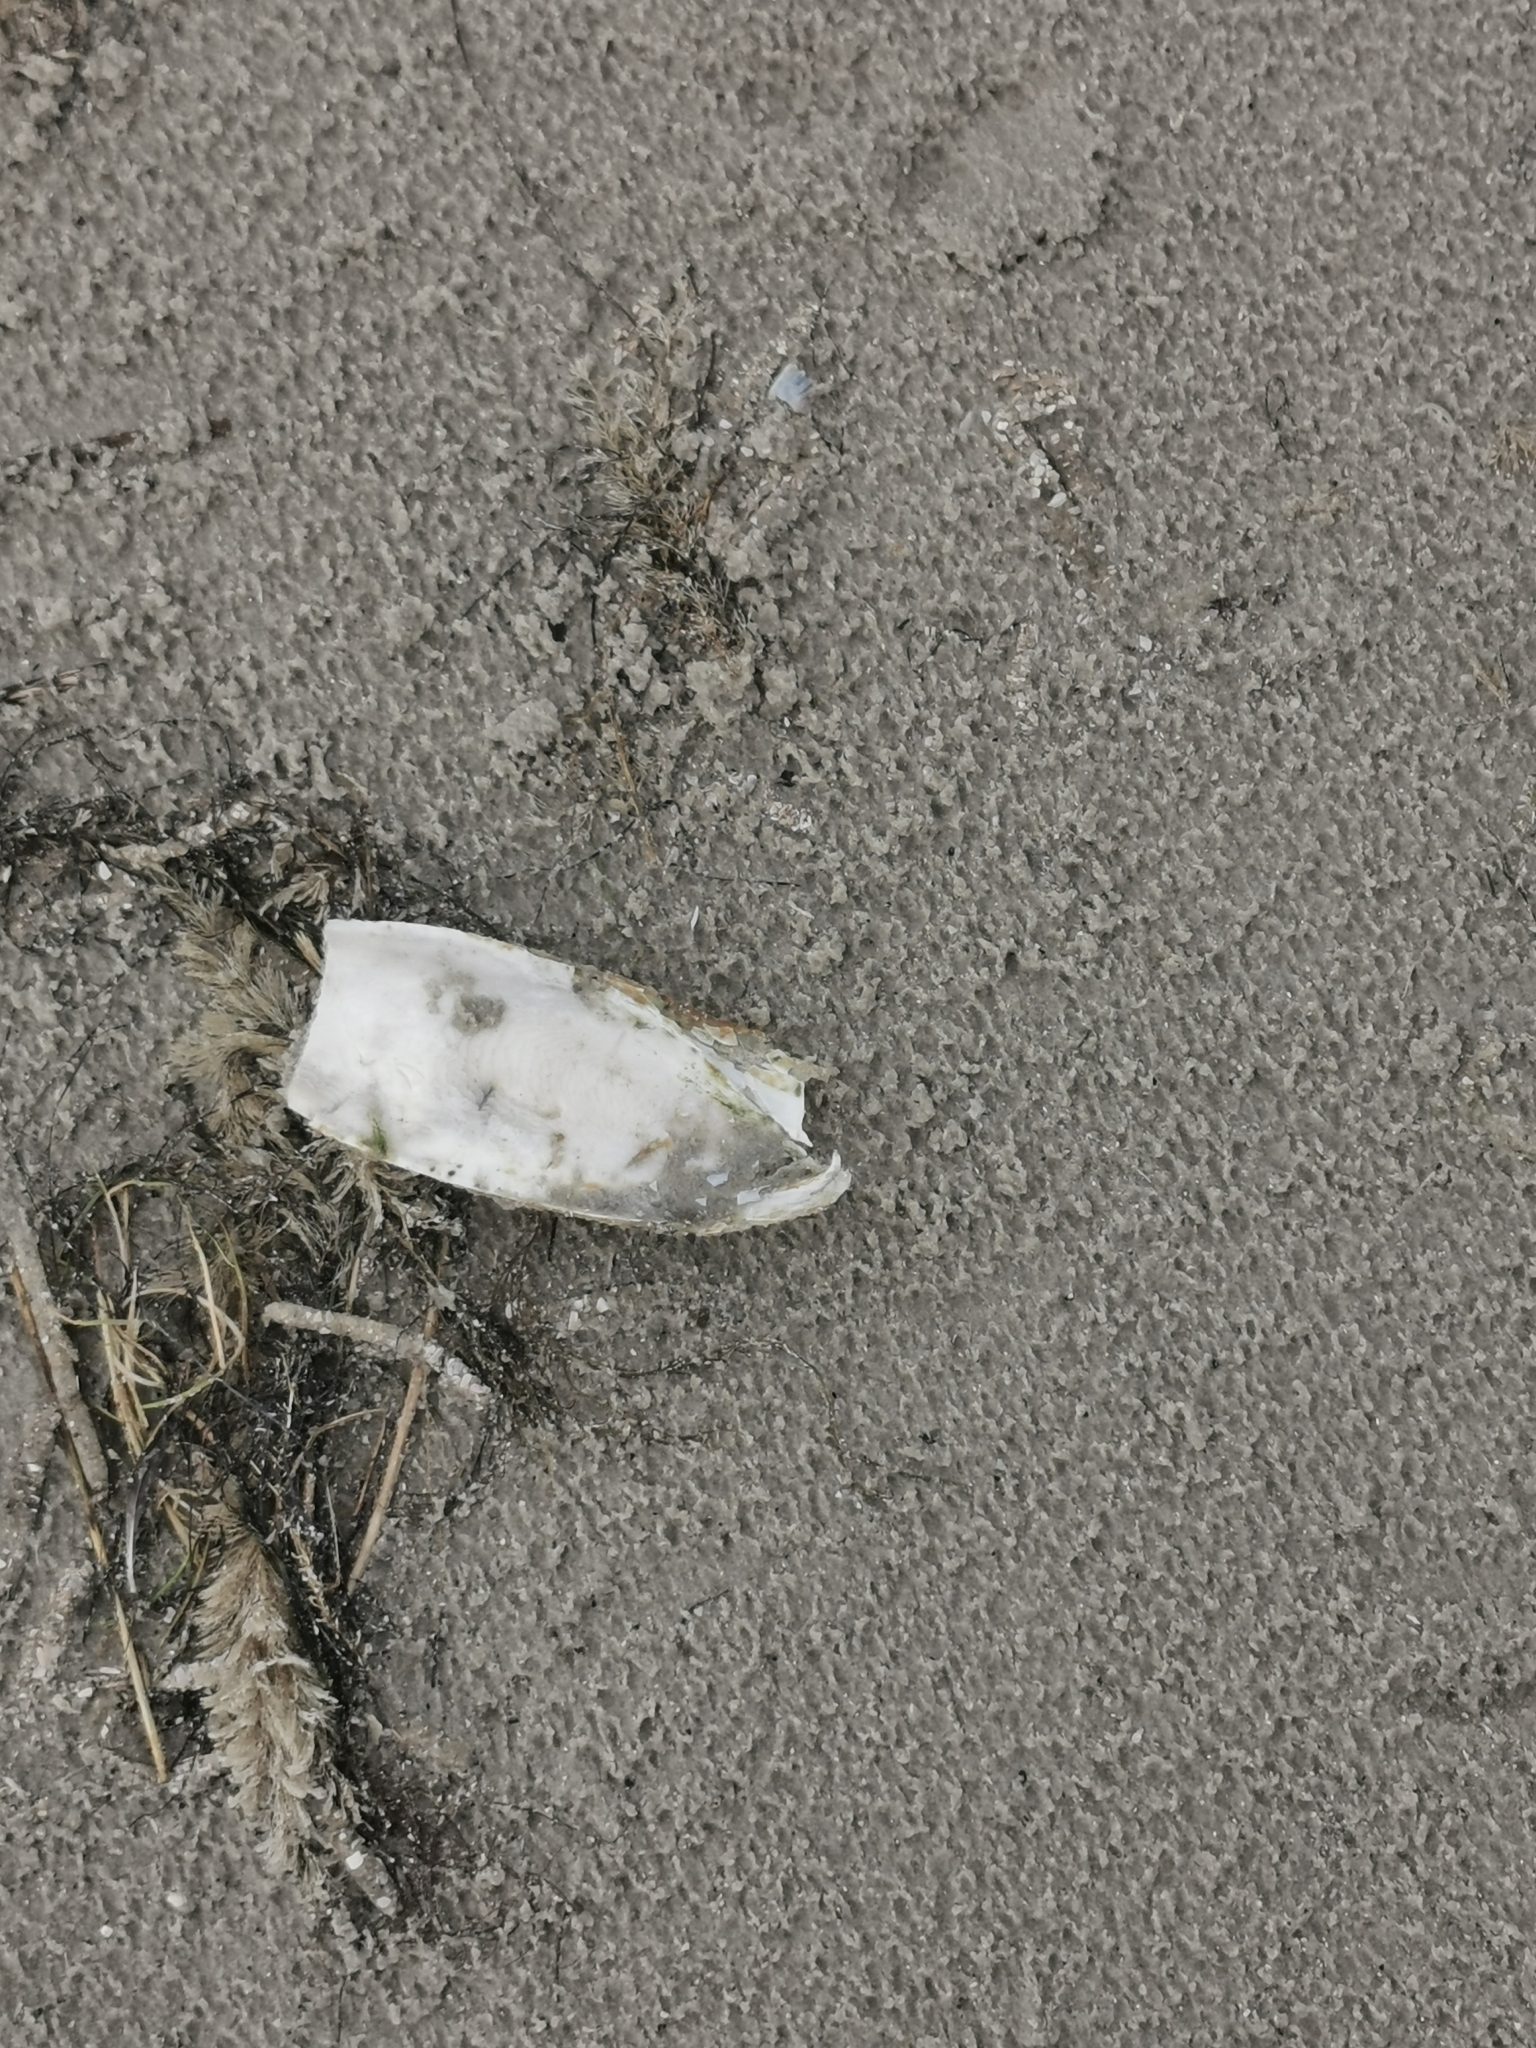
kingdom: Animalia
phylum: Mollusca
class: Cephalopoda
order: Sepiida
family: Sepiidae
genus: Sepia
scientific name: Sepia officinalis
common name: Common cuttlefish
